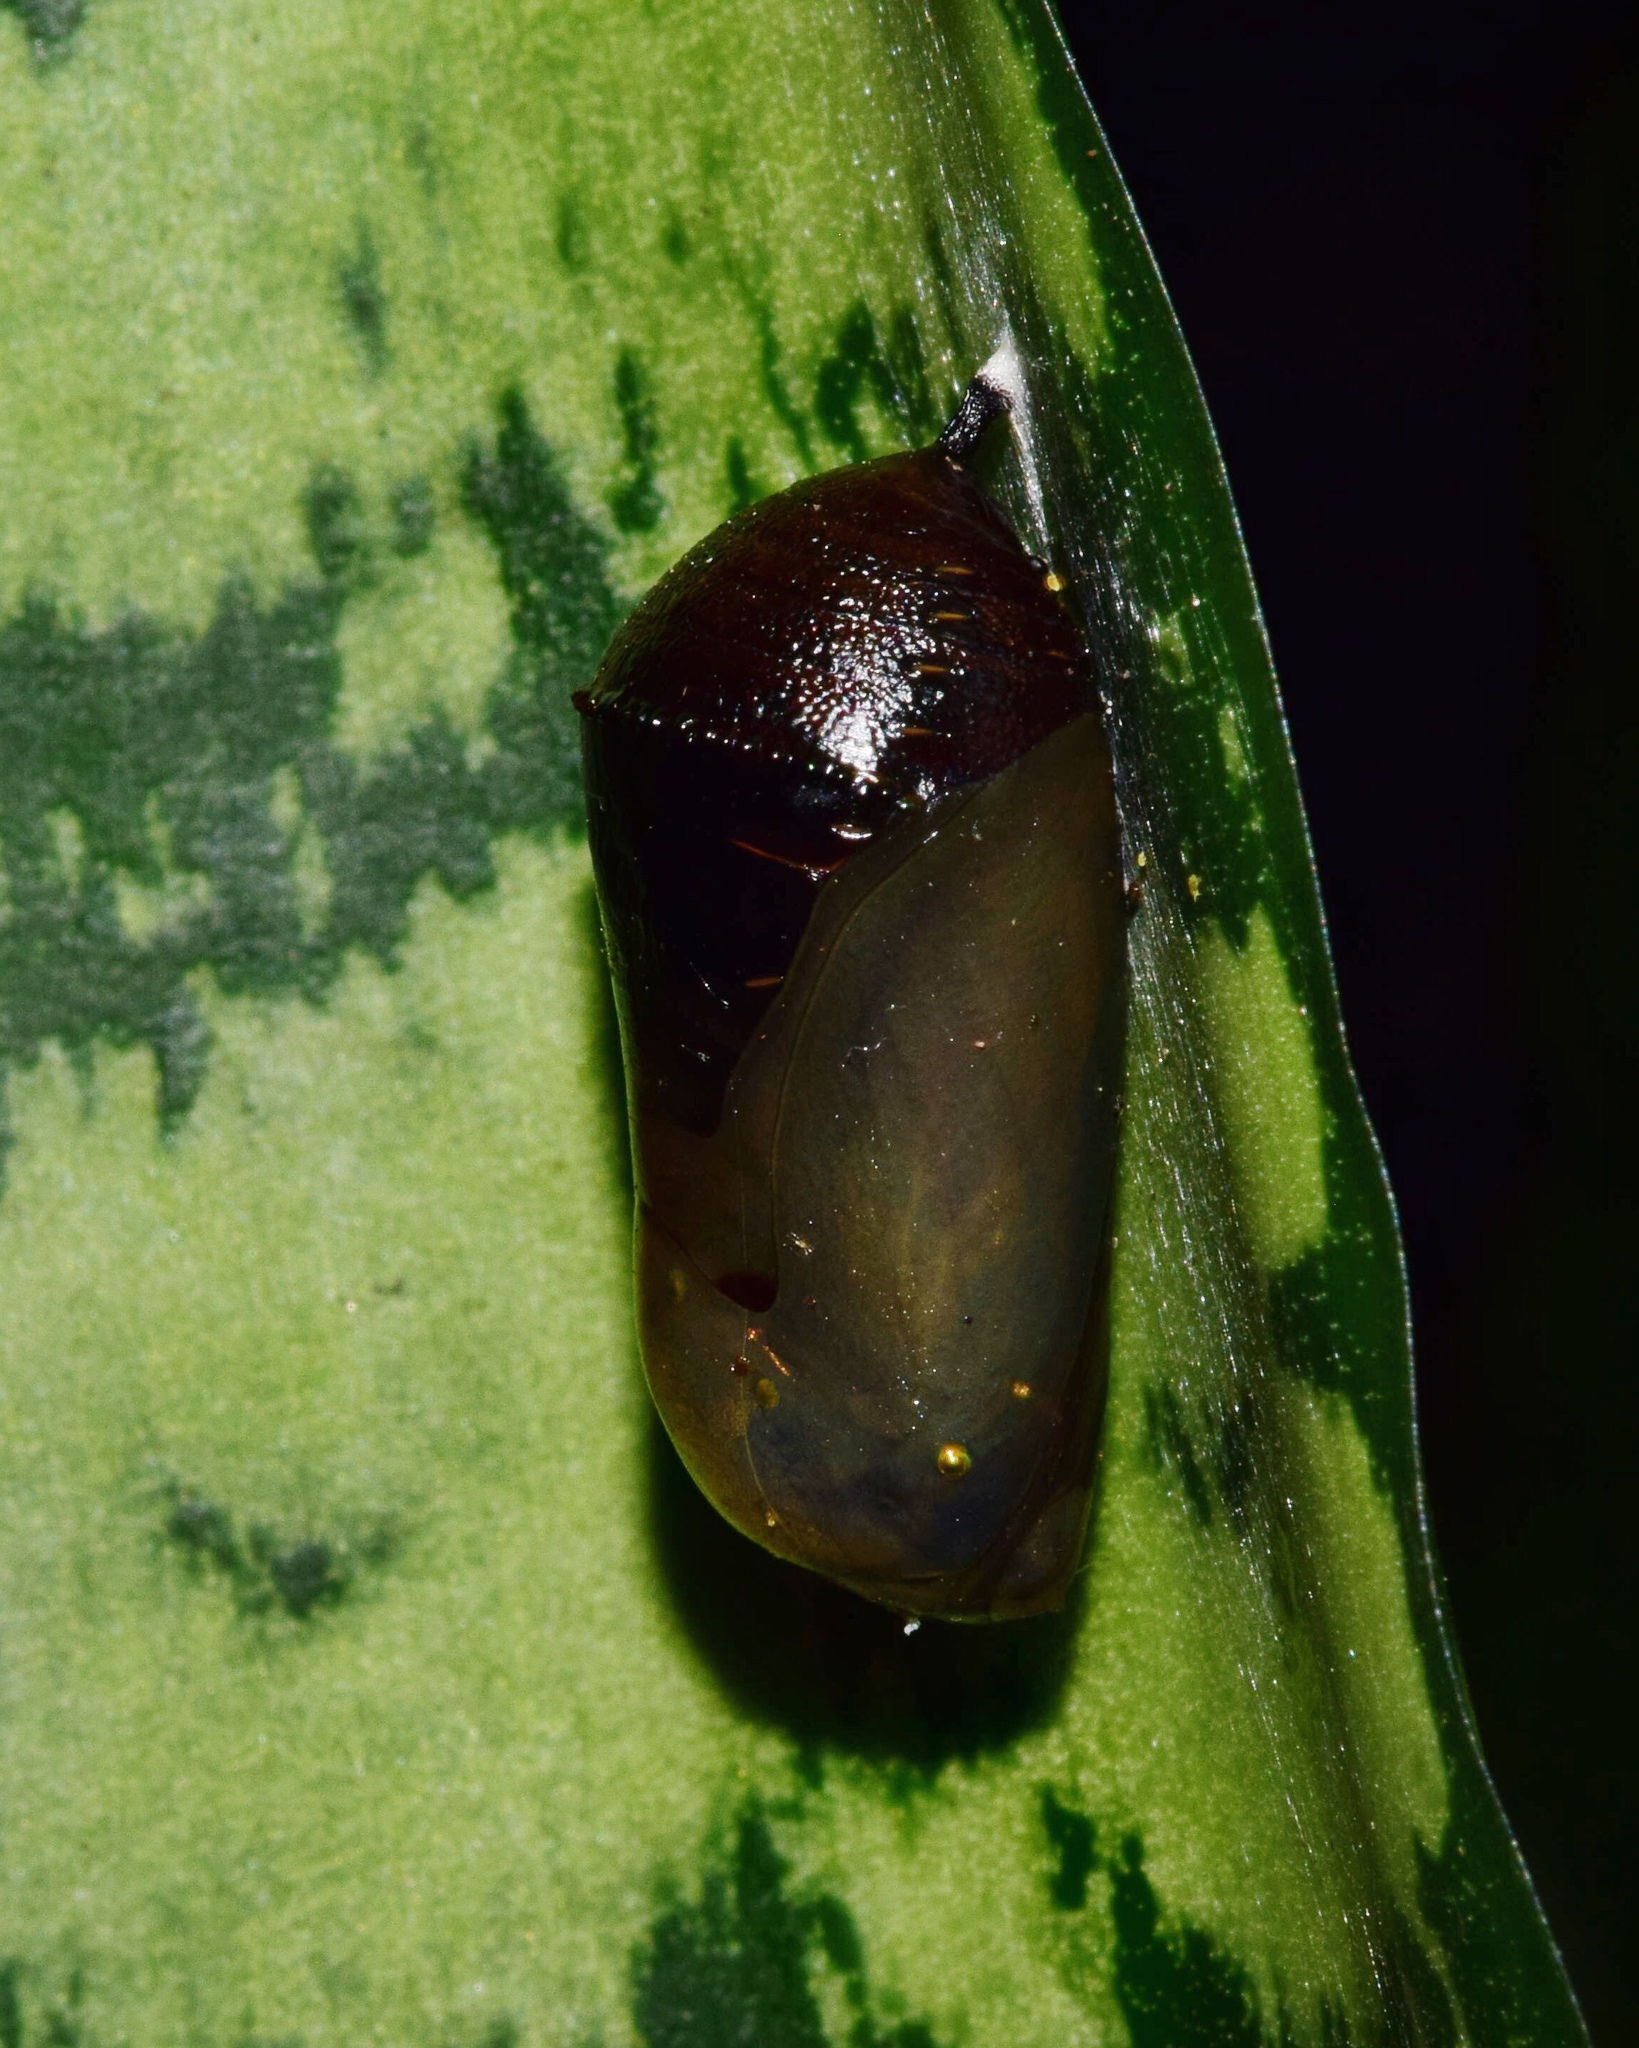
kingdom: Animalia
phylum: Arthropoda
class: Insecta
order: Lepidoptera
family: Nymphalidae
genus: Danaus
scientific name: Danaus chrysippus
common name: Plain tiger
